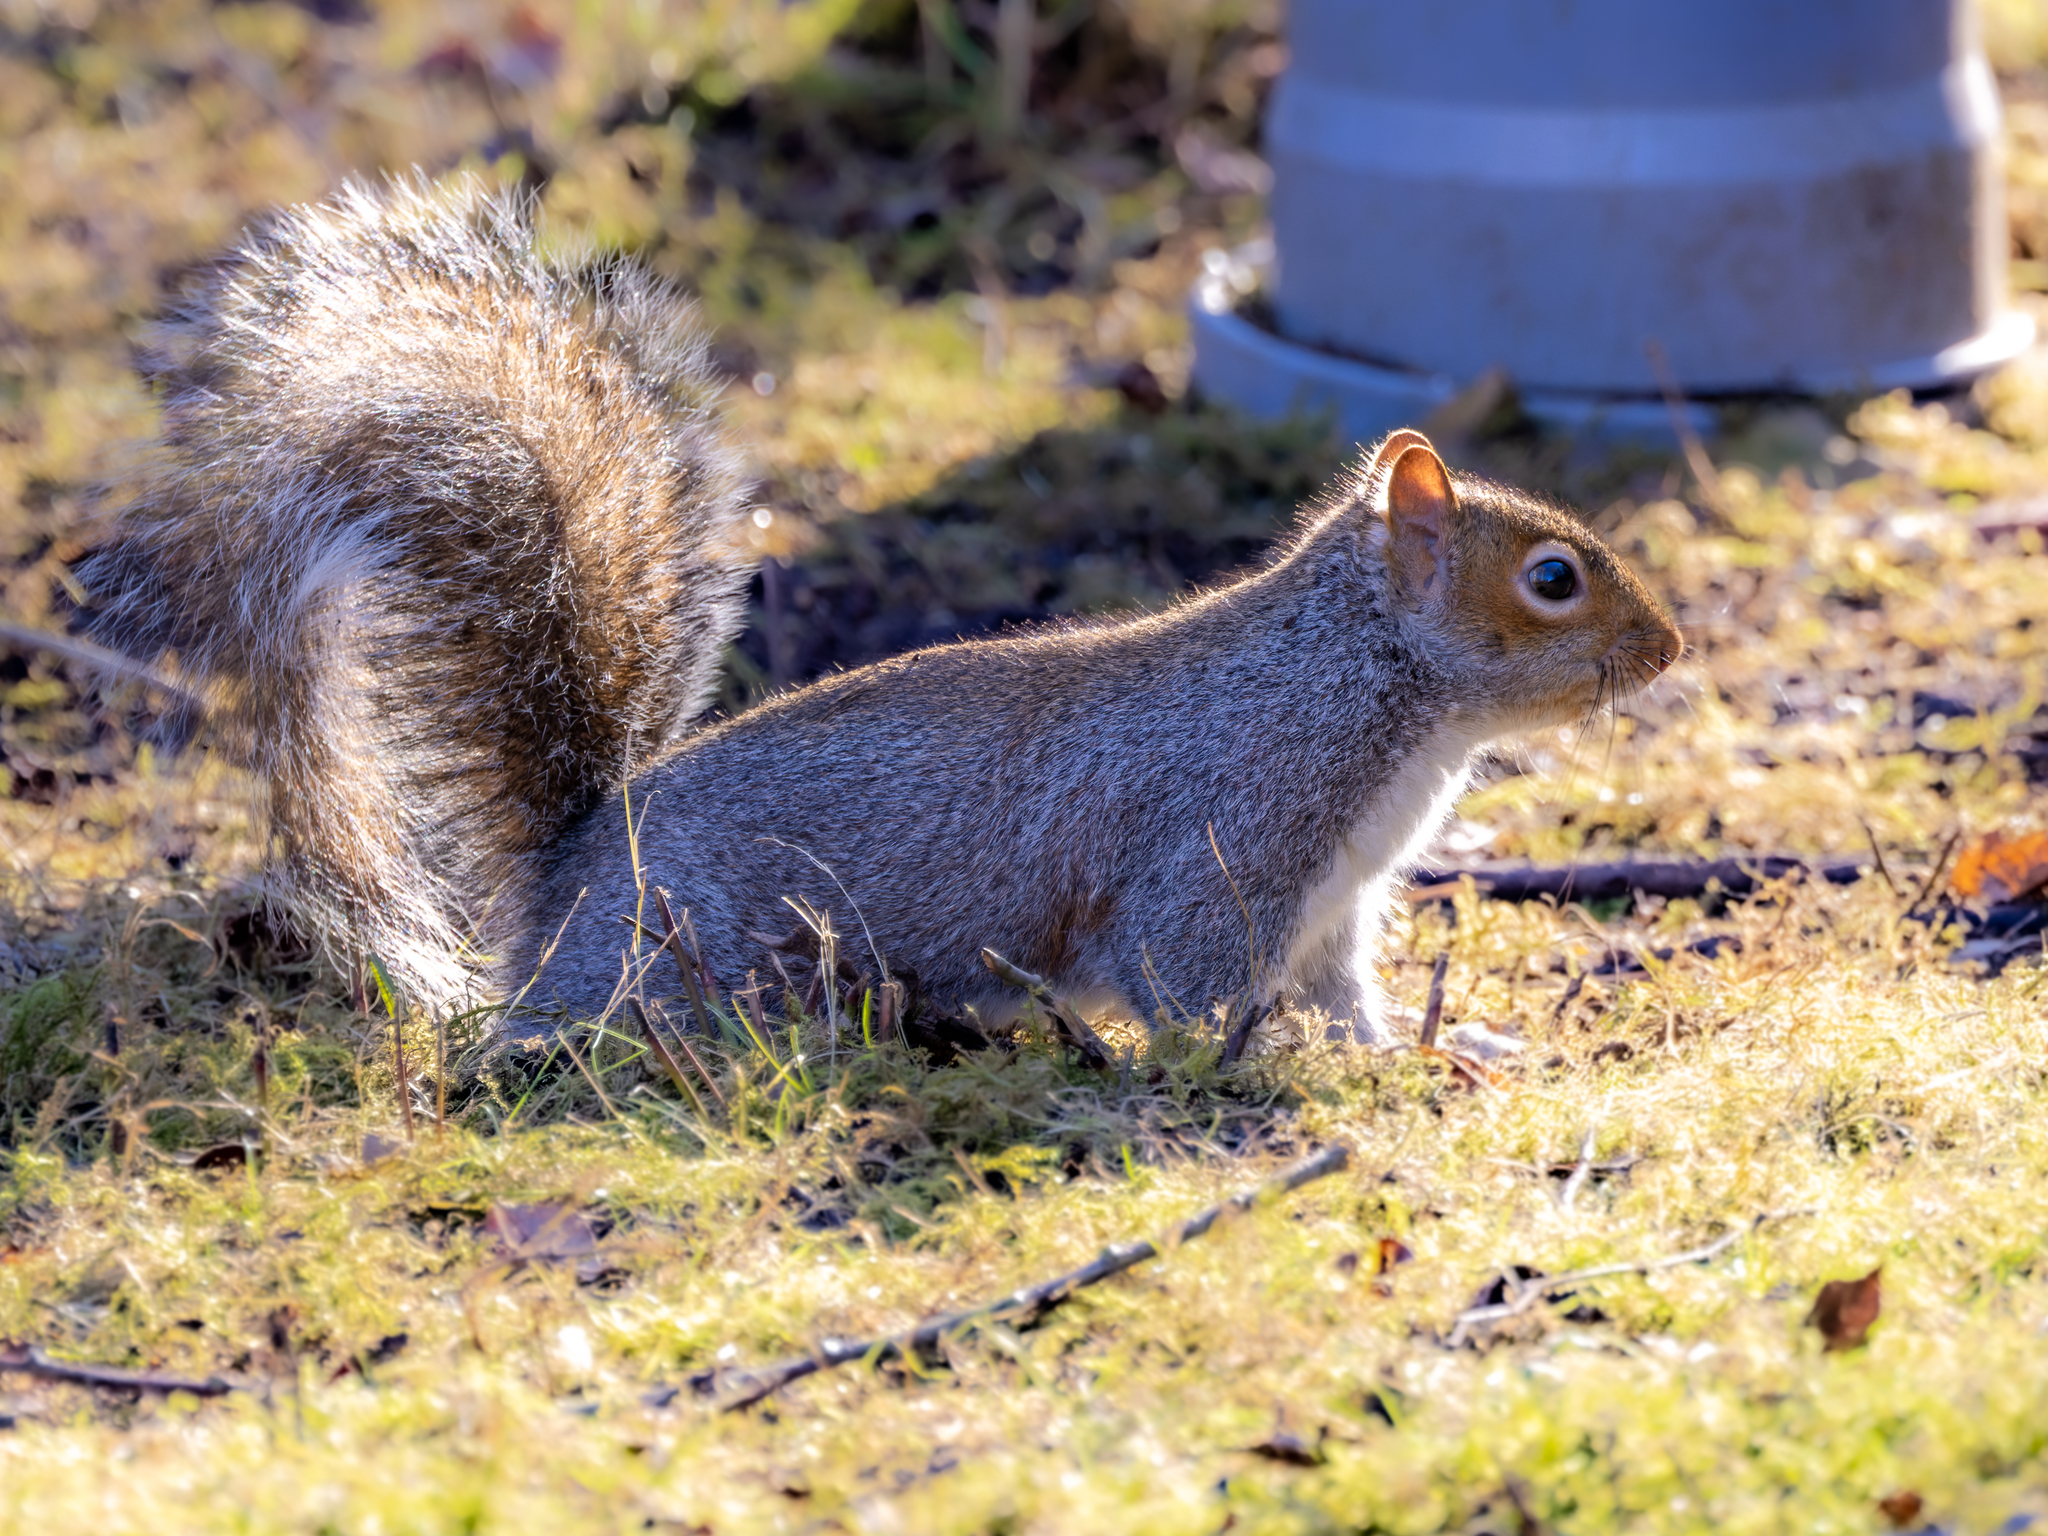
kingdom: Animalia
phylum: Chordata
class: Mammalia
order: Rodentia
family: Sciuridae
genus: Sciurus
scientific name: Sciurus carolinensis
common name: Eastern gray squirrel
